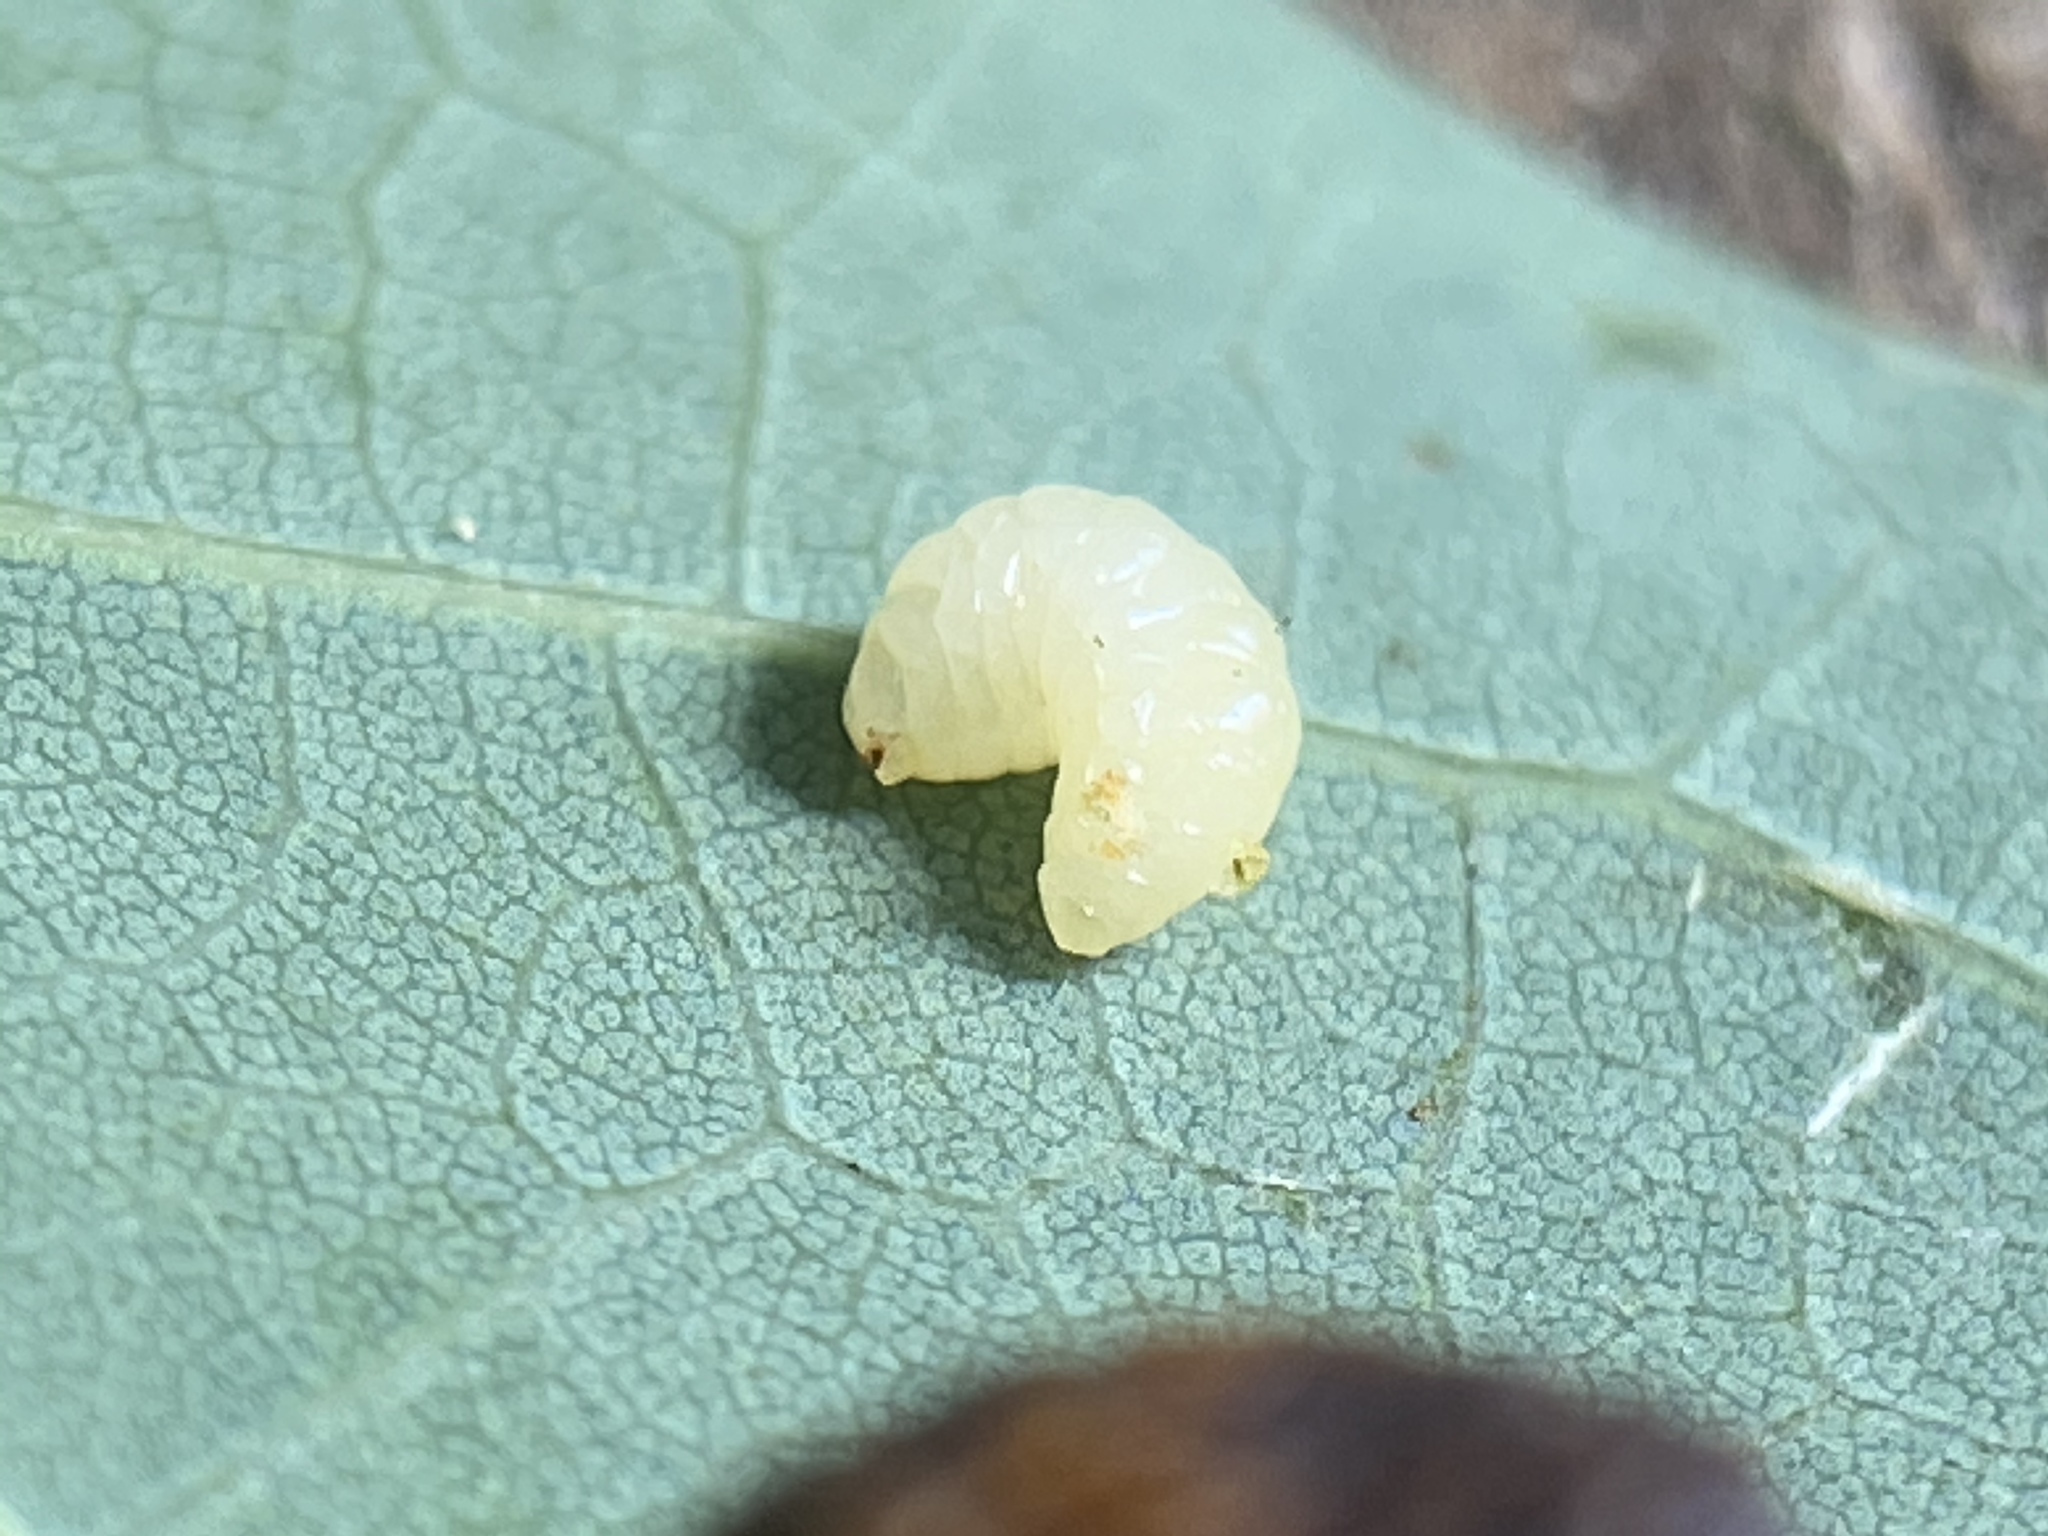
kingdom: Animalia
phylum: Arthropoda
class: Insecta
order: Hymenoptera
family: Cynipidae
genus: Acraspis
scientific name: Acraspis
